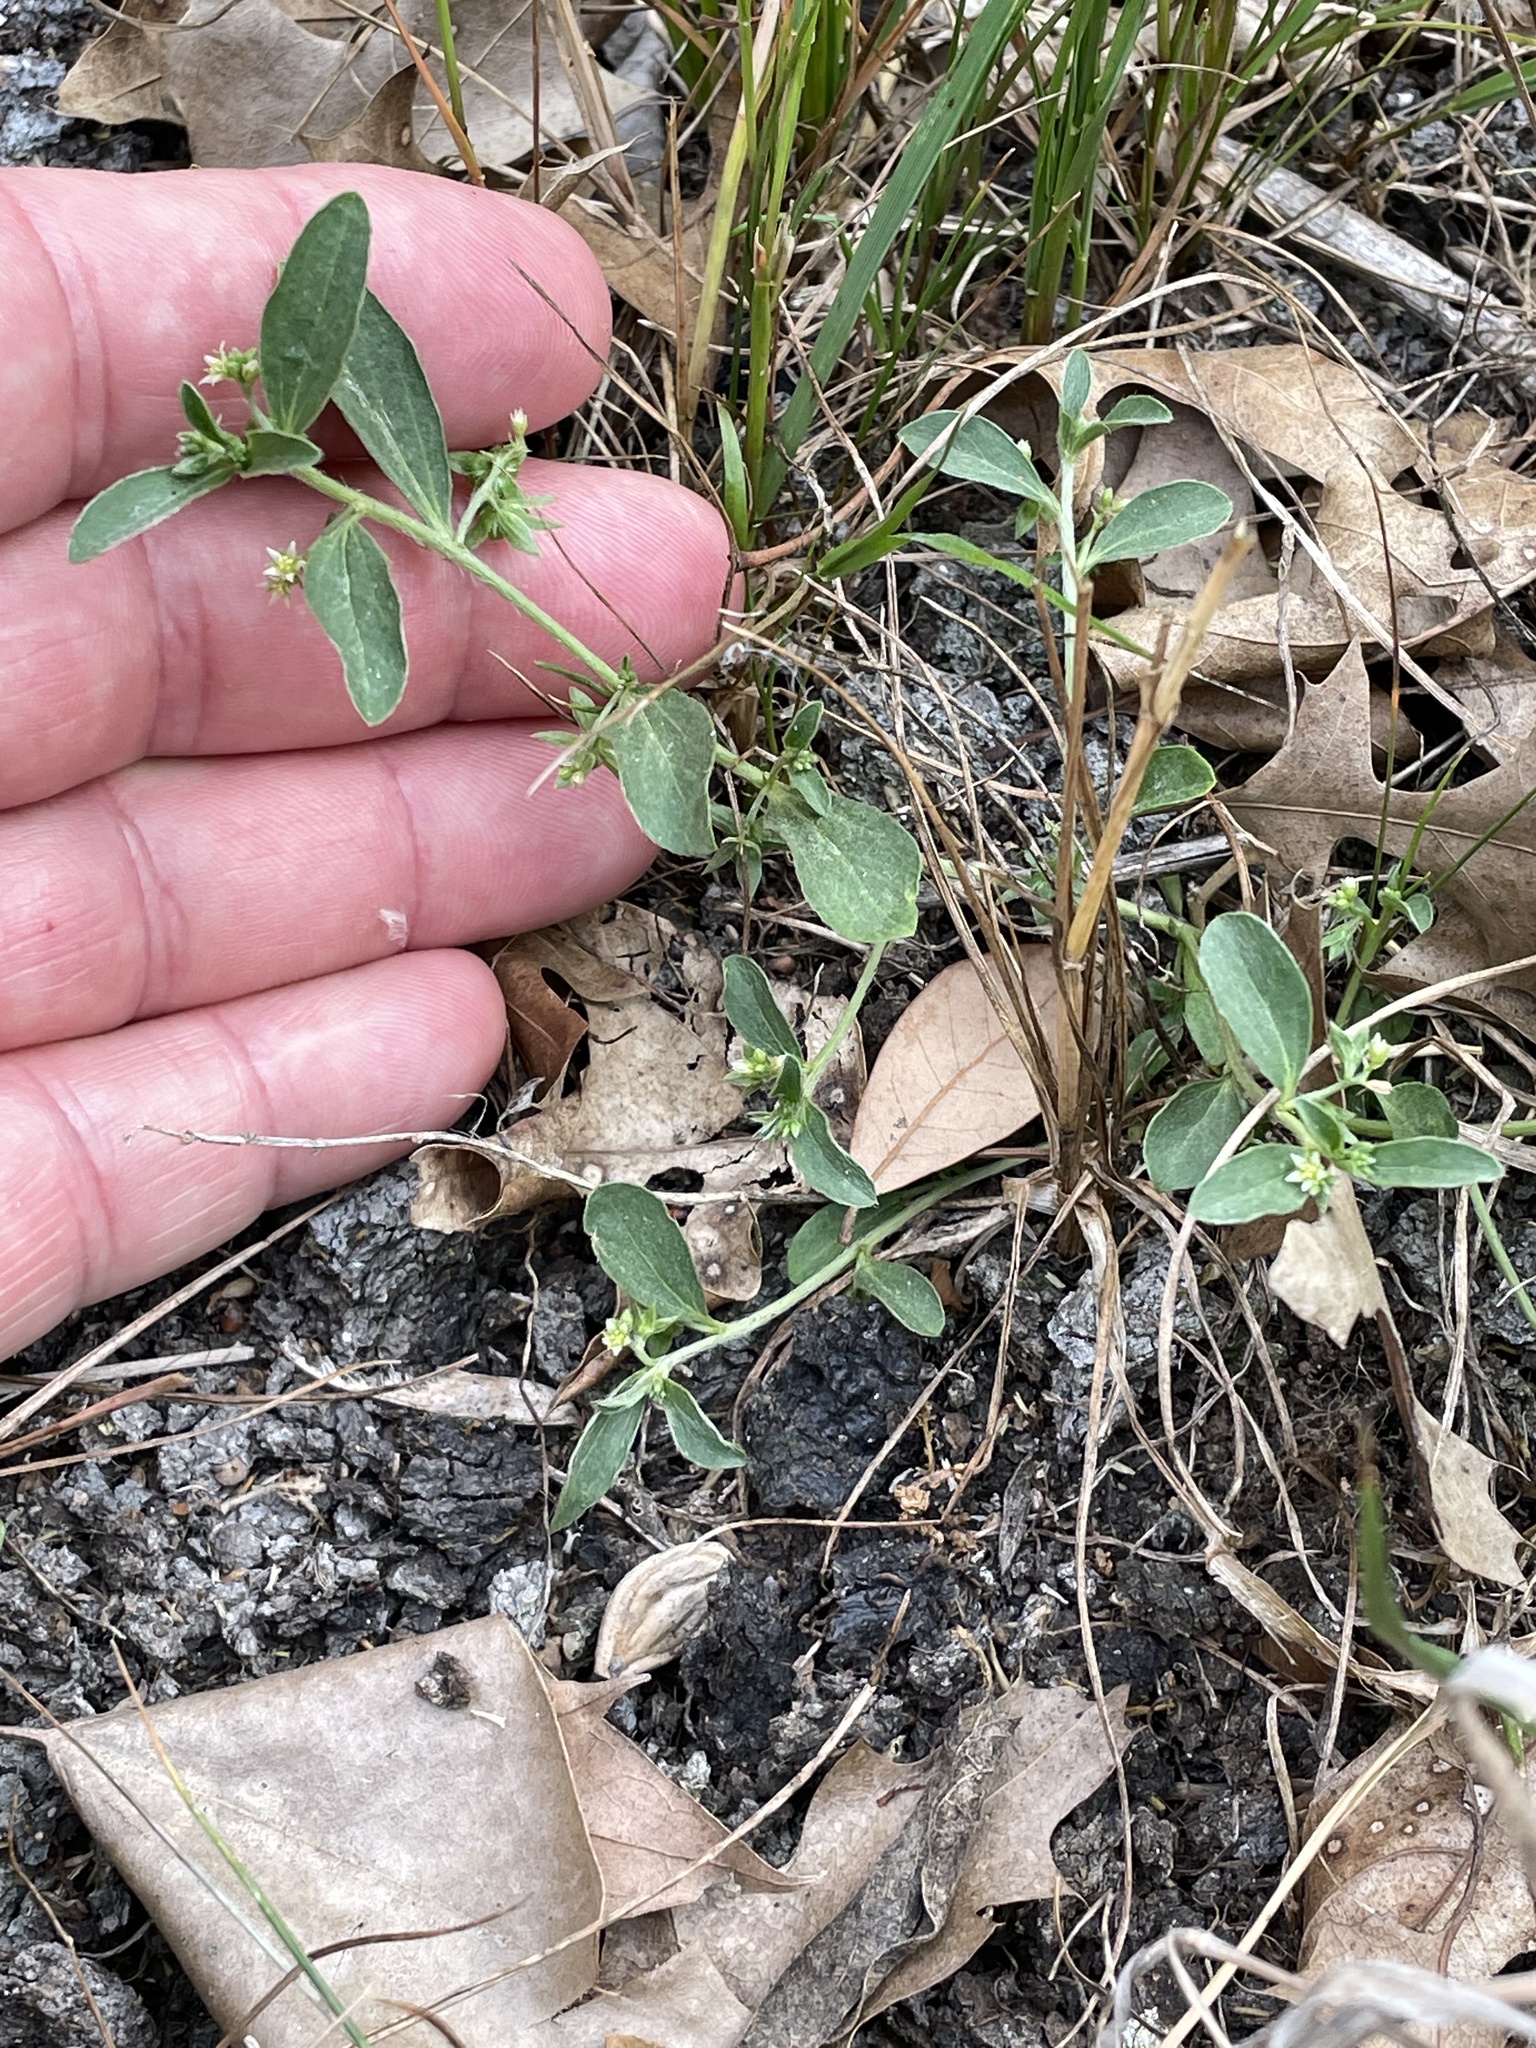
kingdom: Plantae
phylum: Tracheophyta
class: Magnoliopsida
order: Malpighiales
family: Euphorbiaceae
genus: Ditaxis
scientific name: Ditaxis humilis
